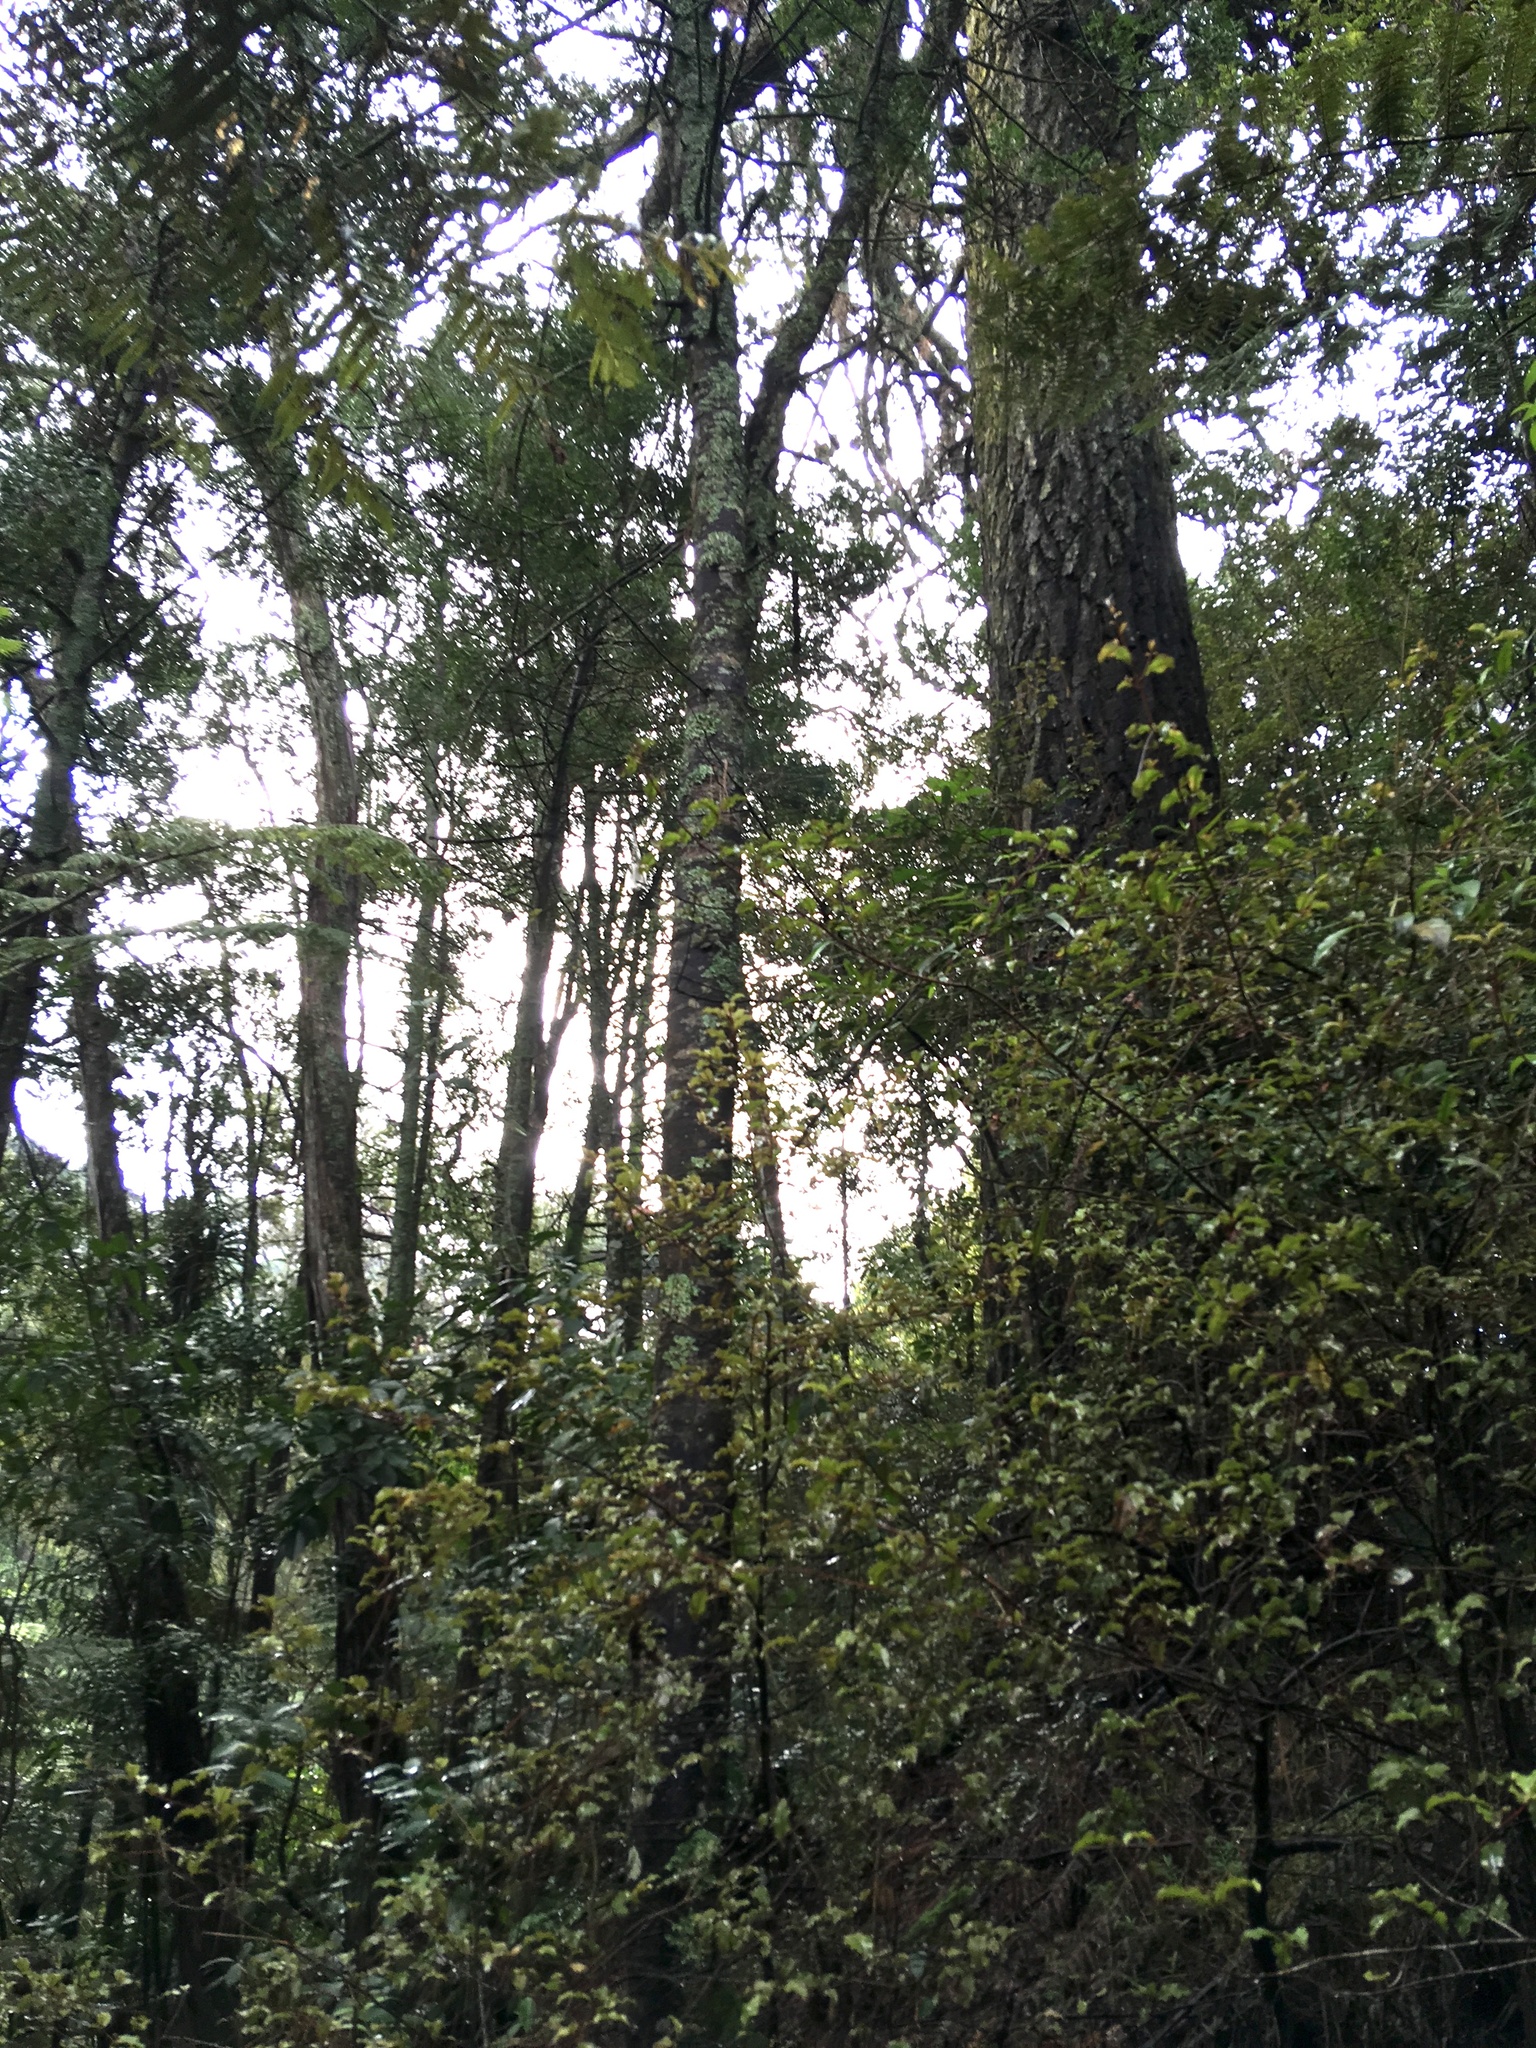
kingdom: Plantae
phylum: Tracheophyta
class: Pinopsida
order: Pinales
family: Phyllocladaceae
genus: Phyllocladus
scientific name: Phyllocladus trichomanoides
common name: Celery pine
